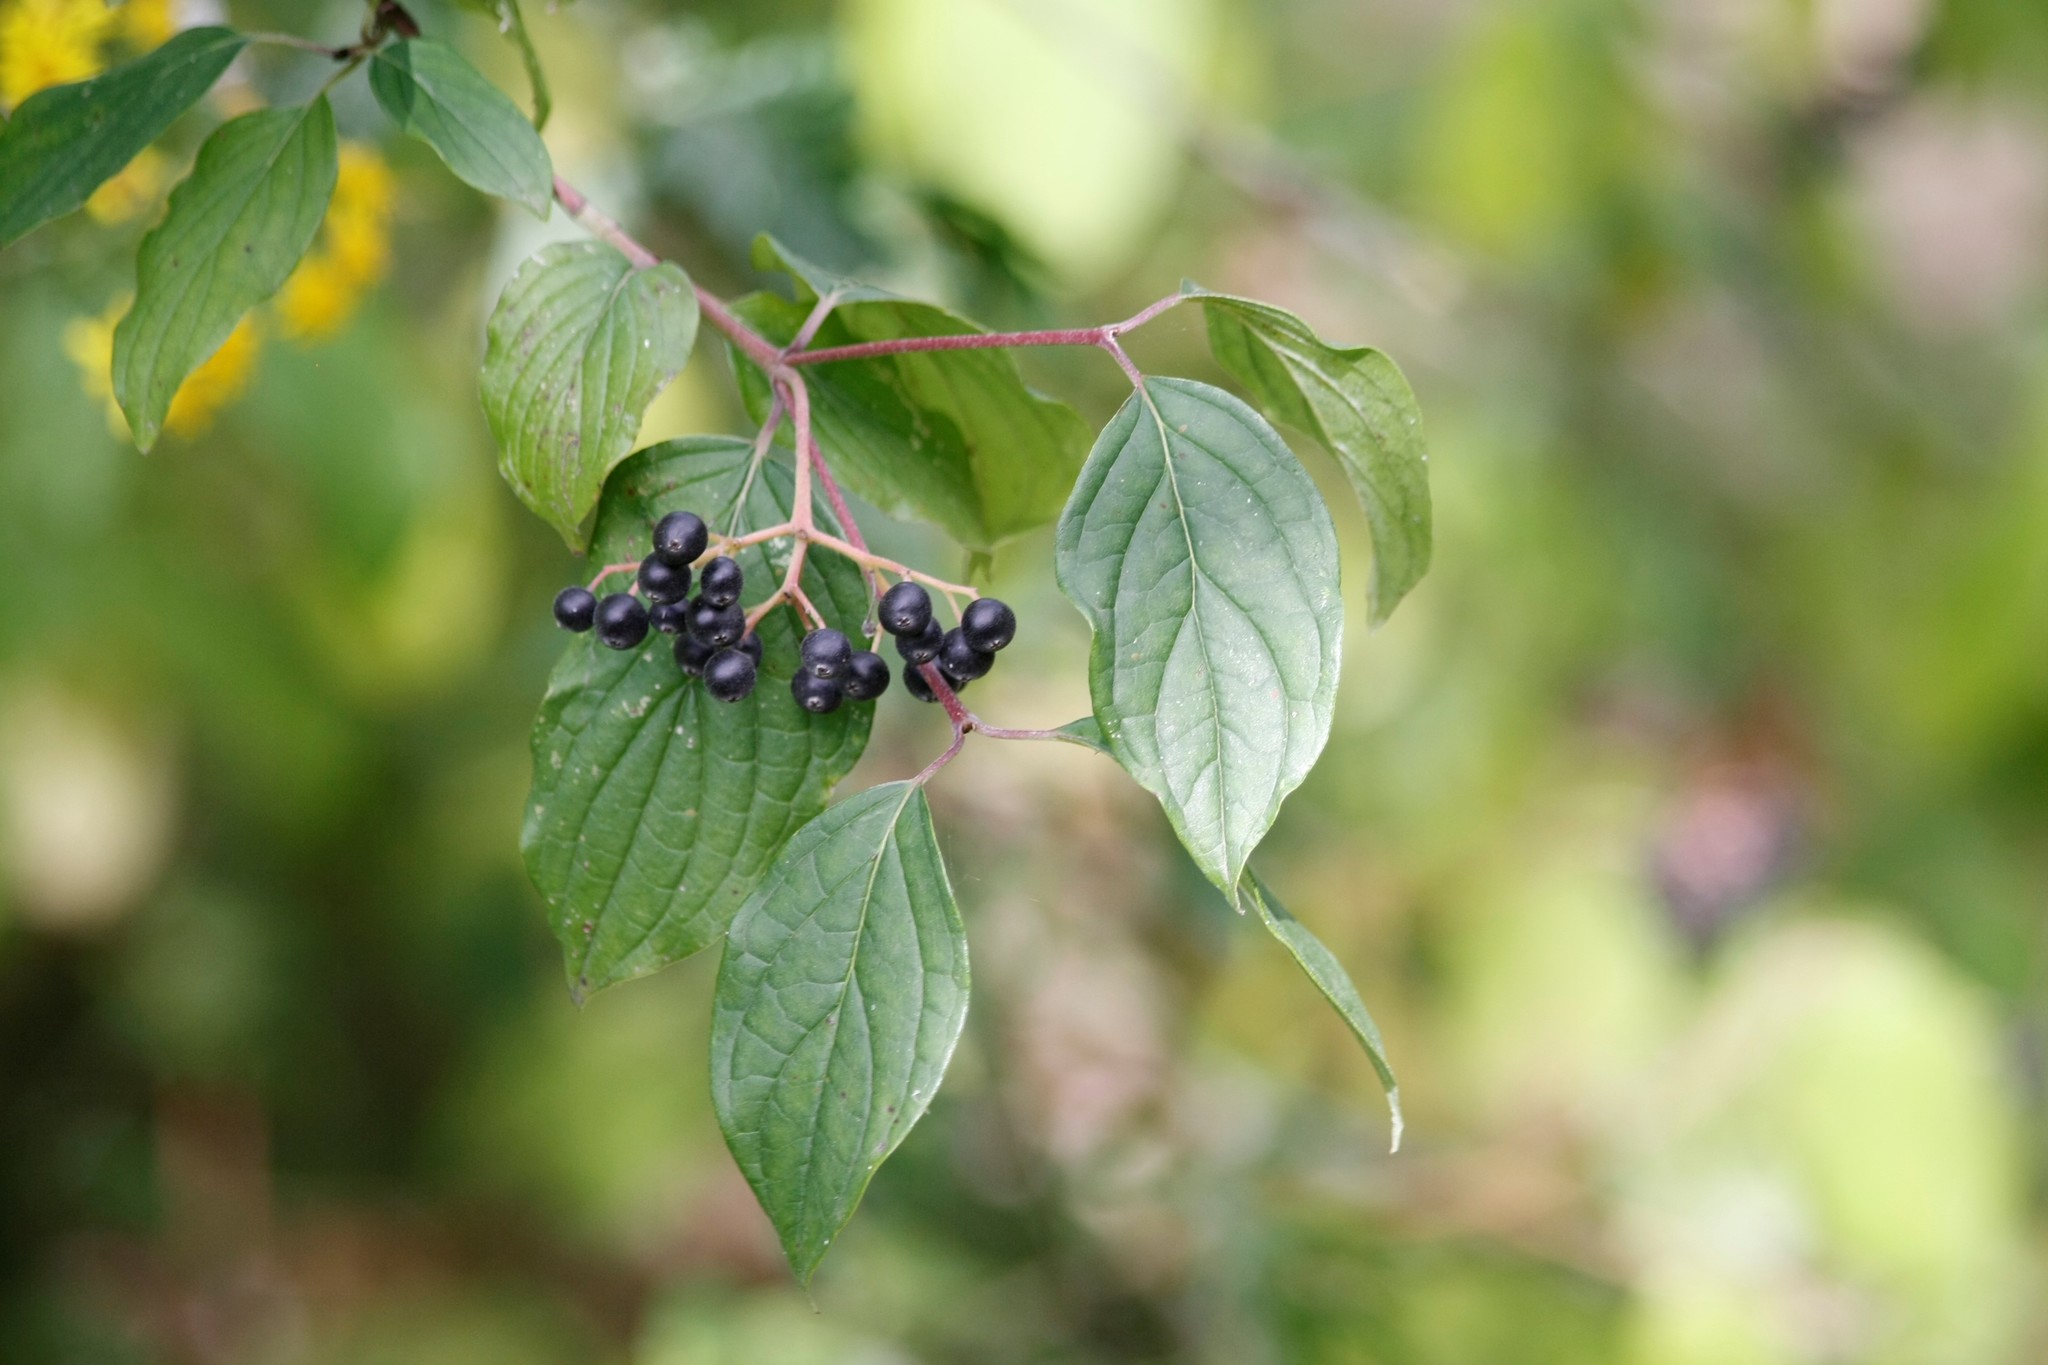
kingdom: Plantae
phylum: Tracheophyta
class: Magnoliopsida
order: Cornales
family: Cornaceae
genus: Cornus
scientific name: Cornus sanguinea
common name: Dogwood
